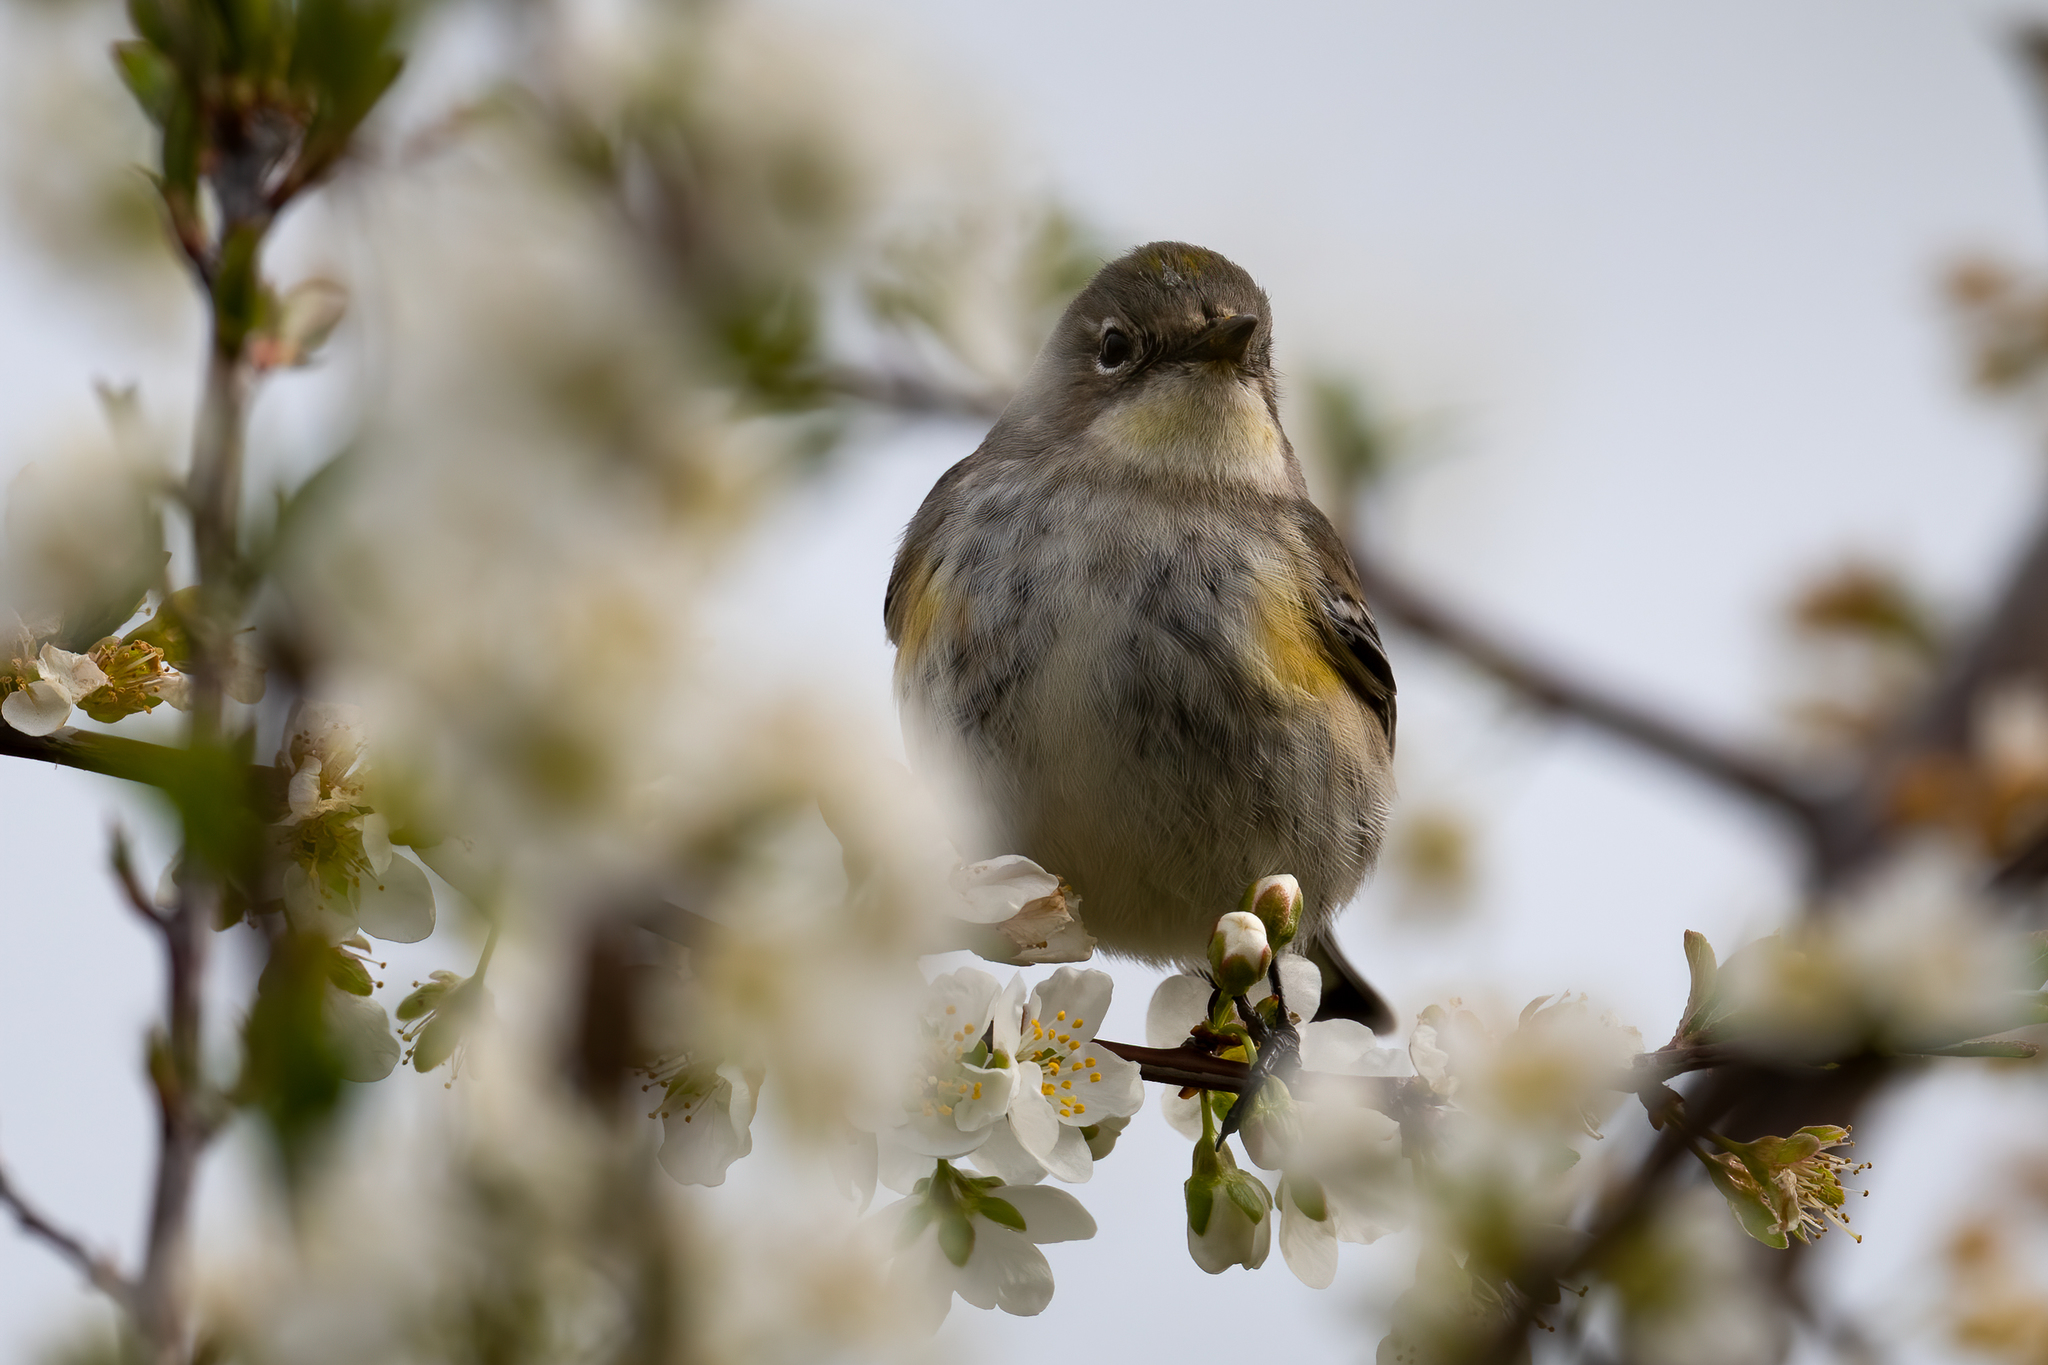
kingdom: Animalia
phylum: Chordata
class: Aves
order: Passeriformes
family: Parulidae
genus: Setophaga
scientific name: Setophaga coronata
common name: Myrtle warbler
